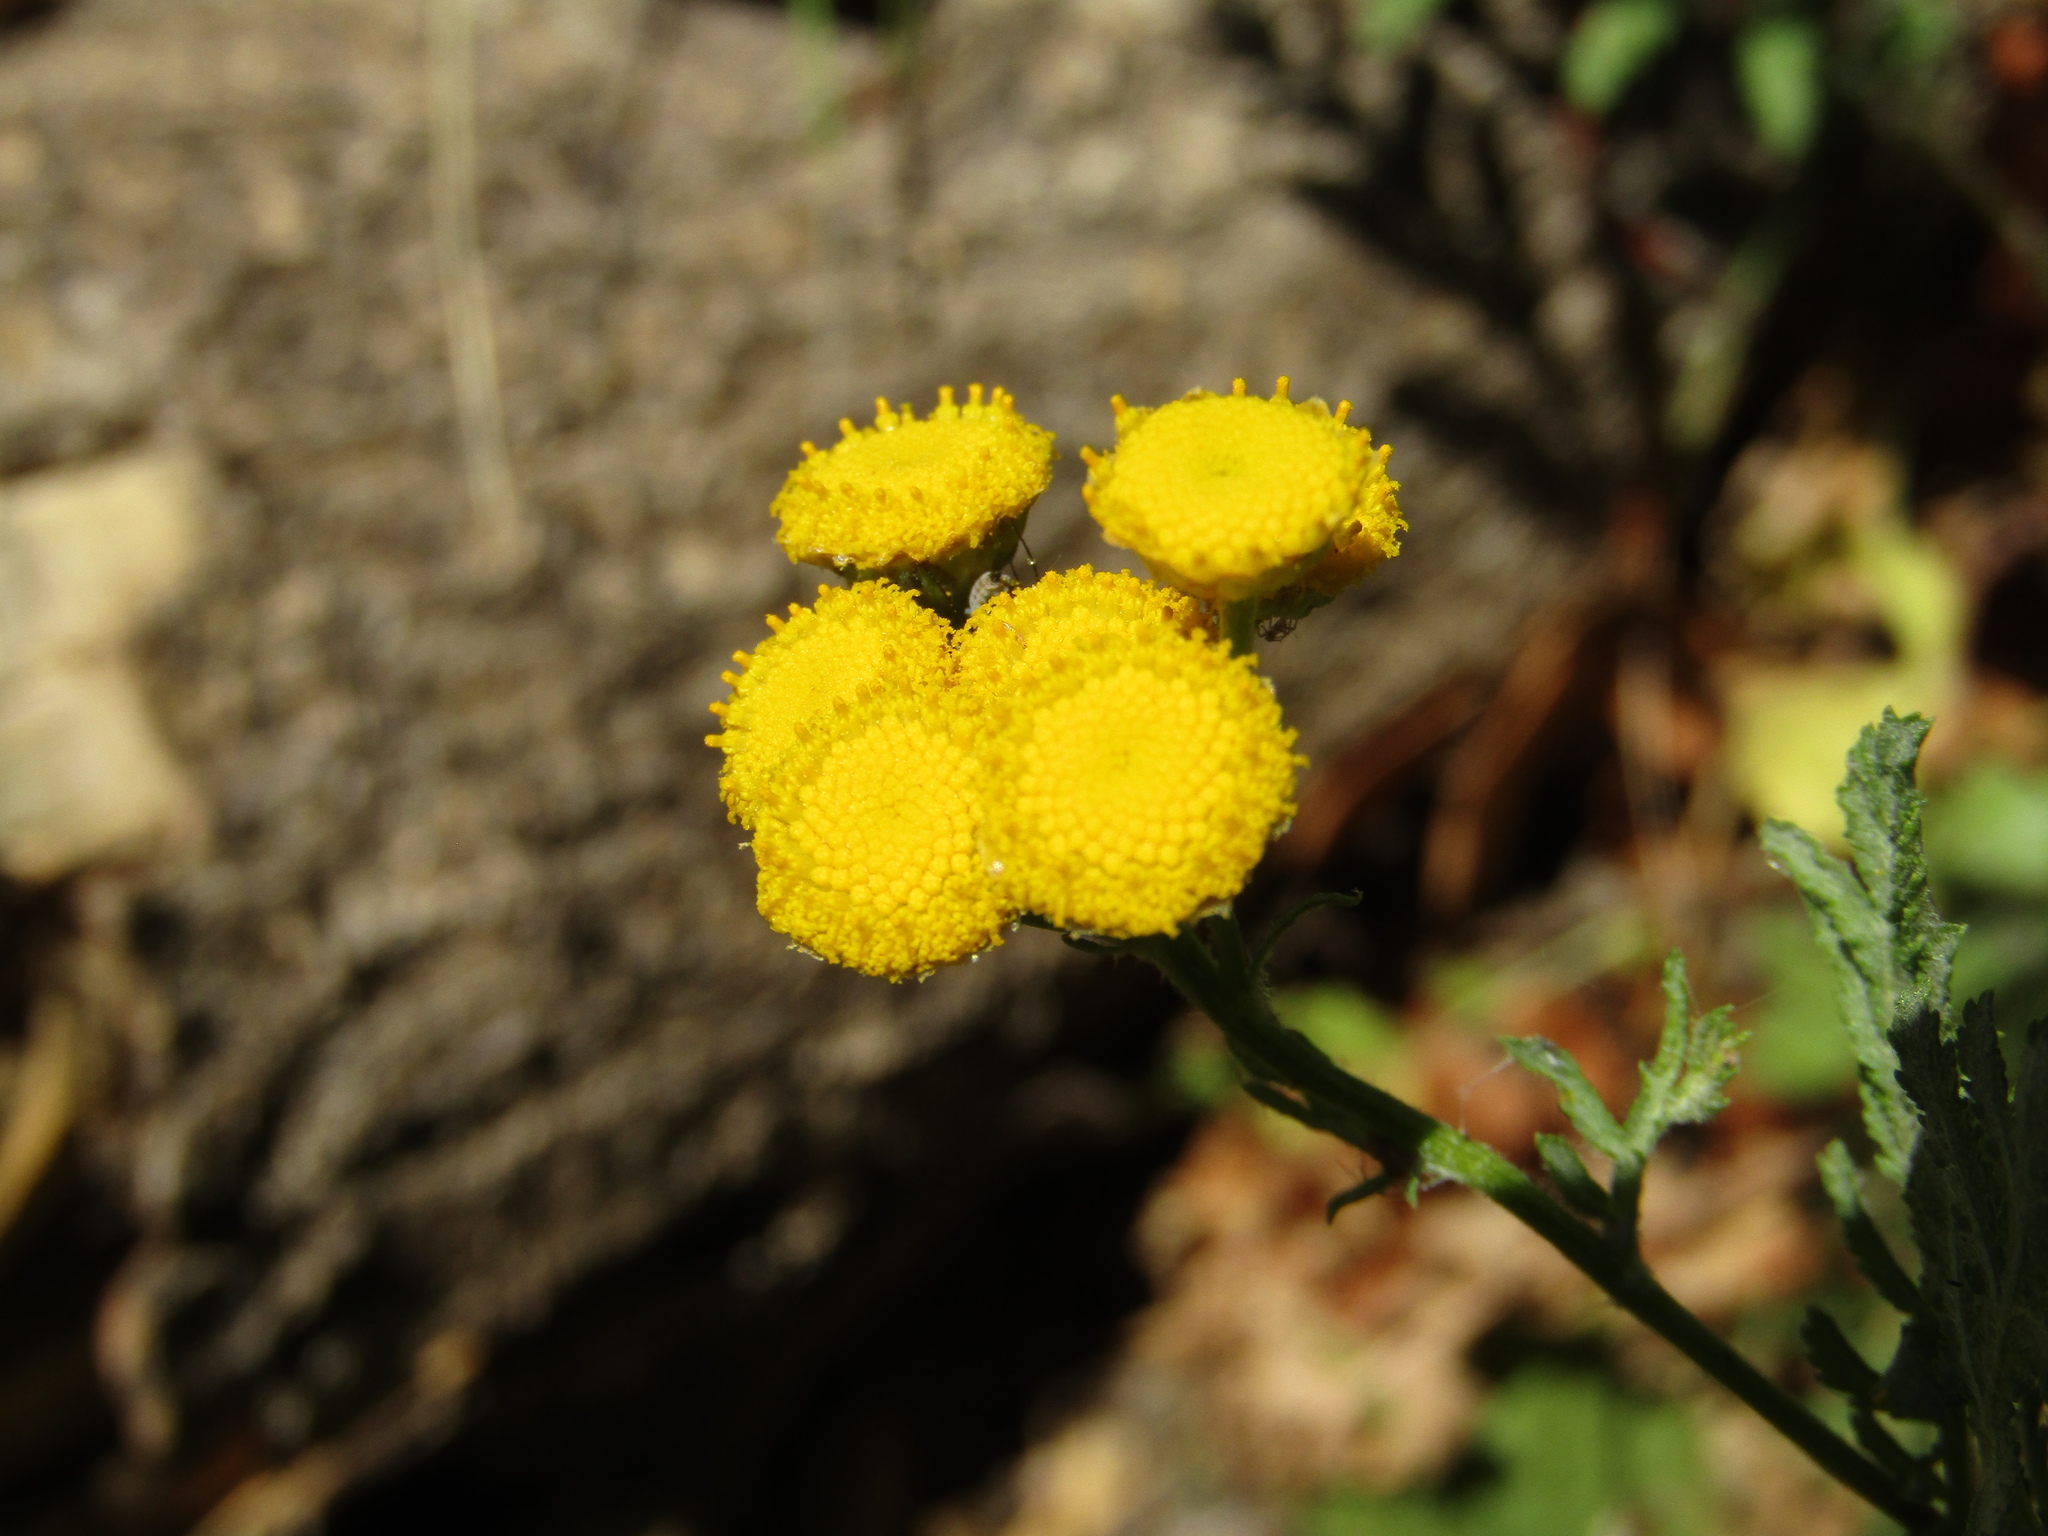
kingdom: Plantae
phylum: Tracheophyta
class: Magnoliopsida
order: Asterales
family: Asteraceae
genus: Tanacetum
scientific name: Tanacetum vulgare
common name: Common tansy
